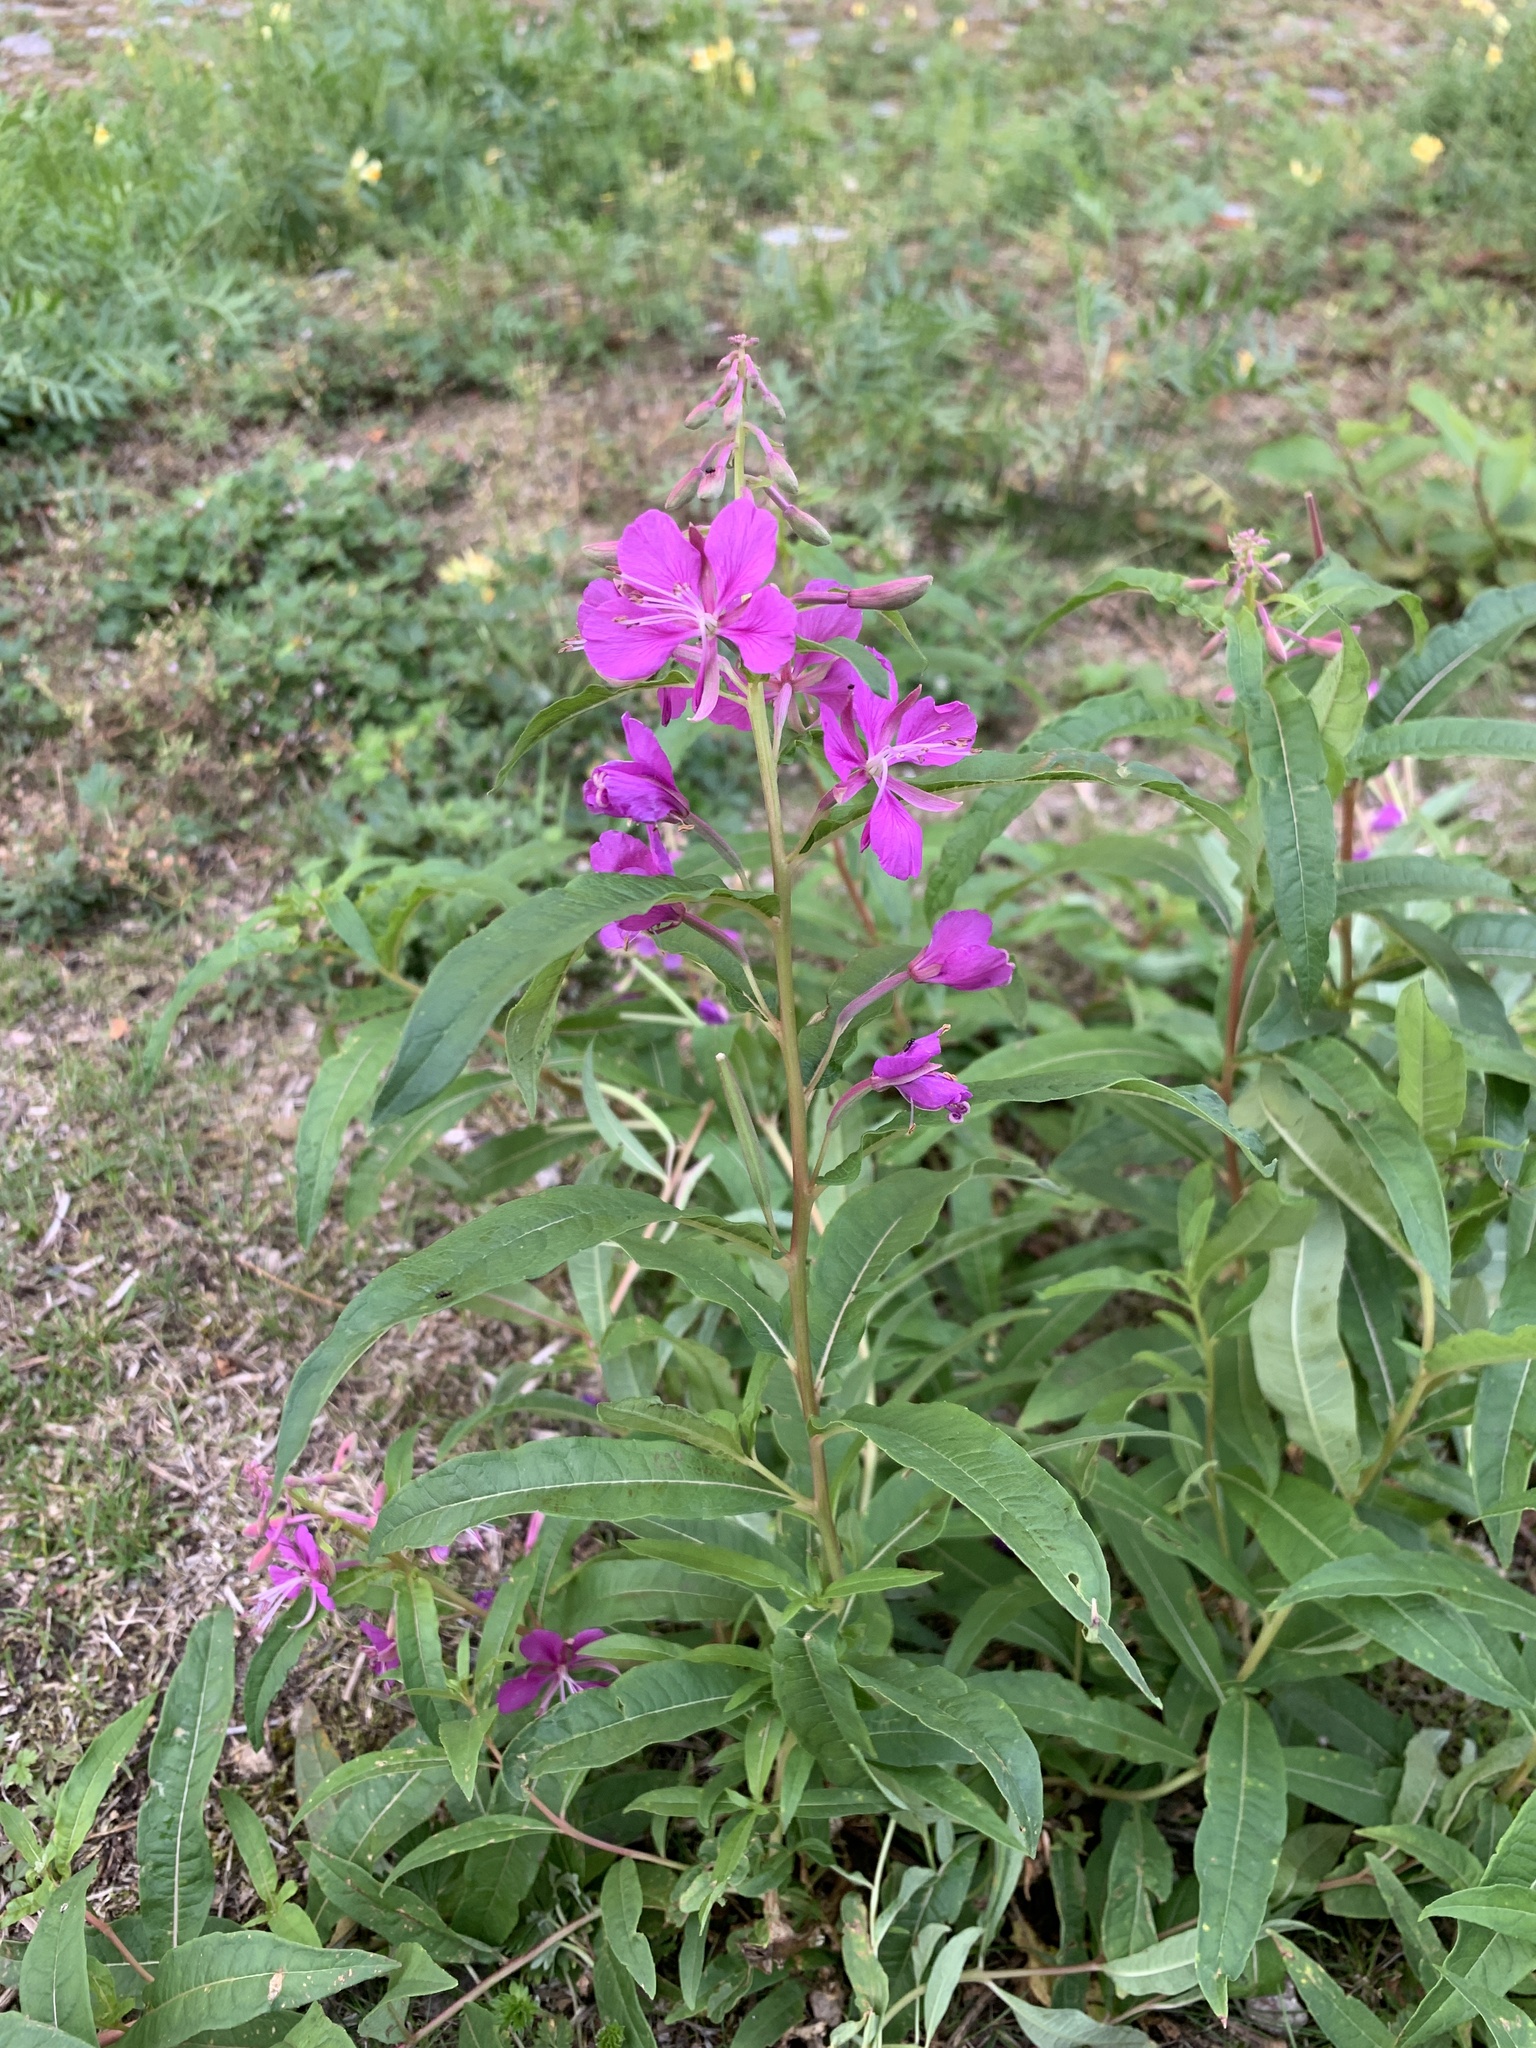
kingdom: Plantae
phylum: Tracheophyta
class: Magnoliopsida
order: Myrtales
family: Onagraceae
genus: Chamaenerion
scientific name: Chamaenerion angustifolium
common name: Fireweed
